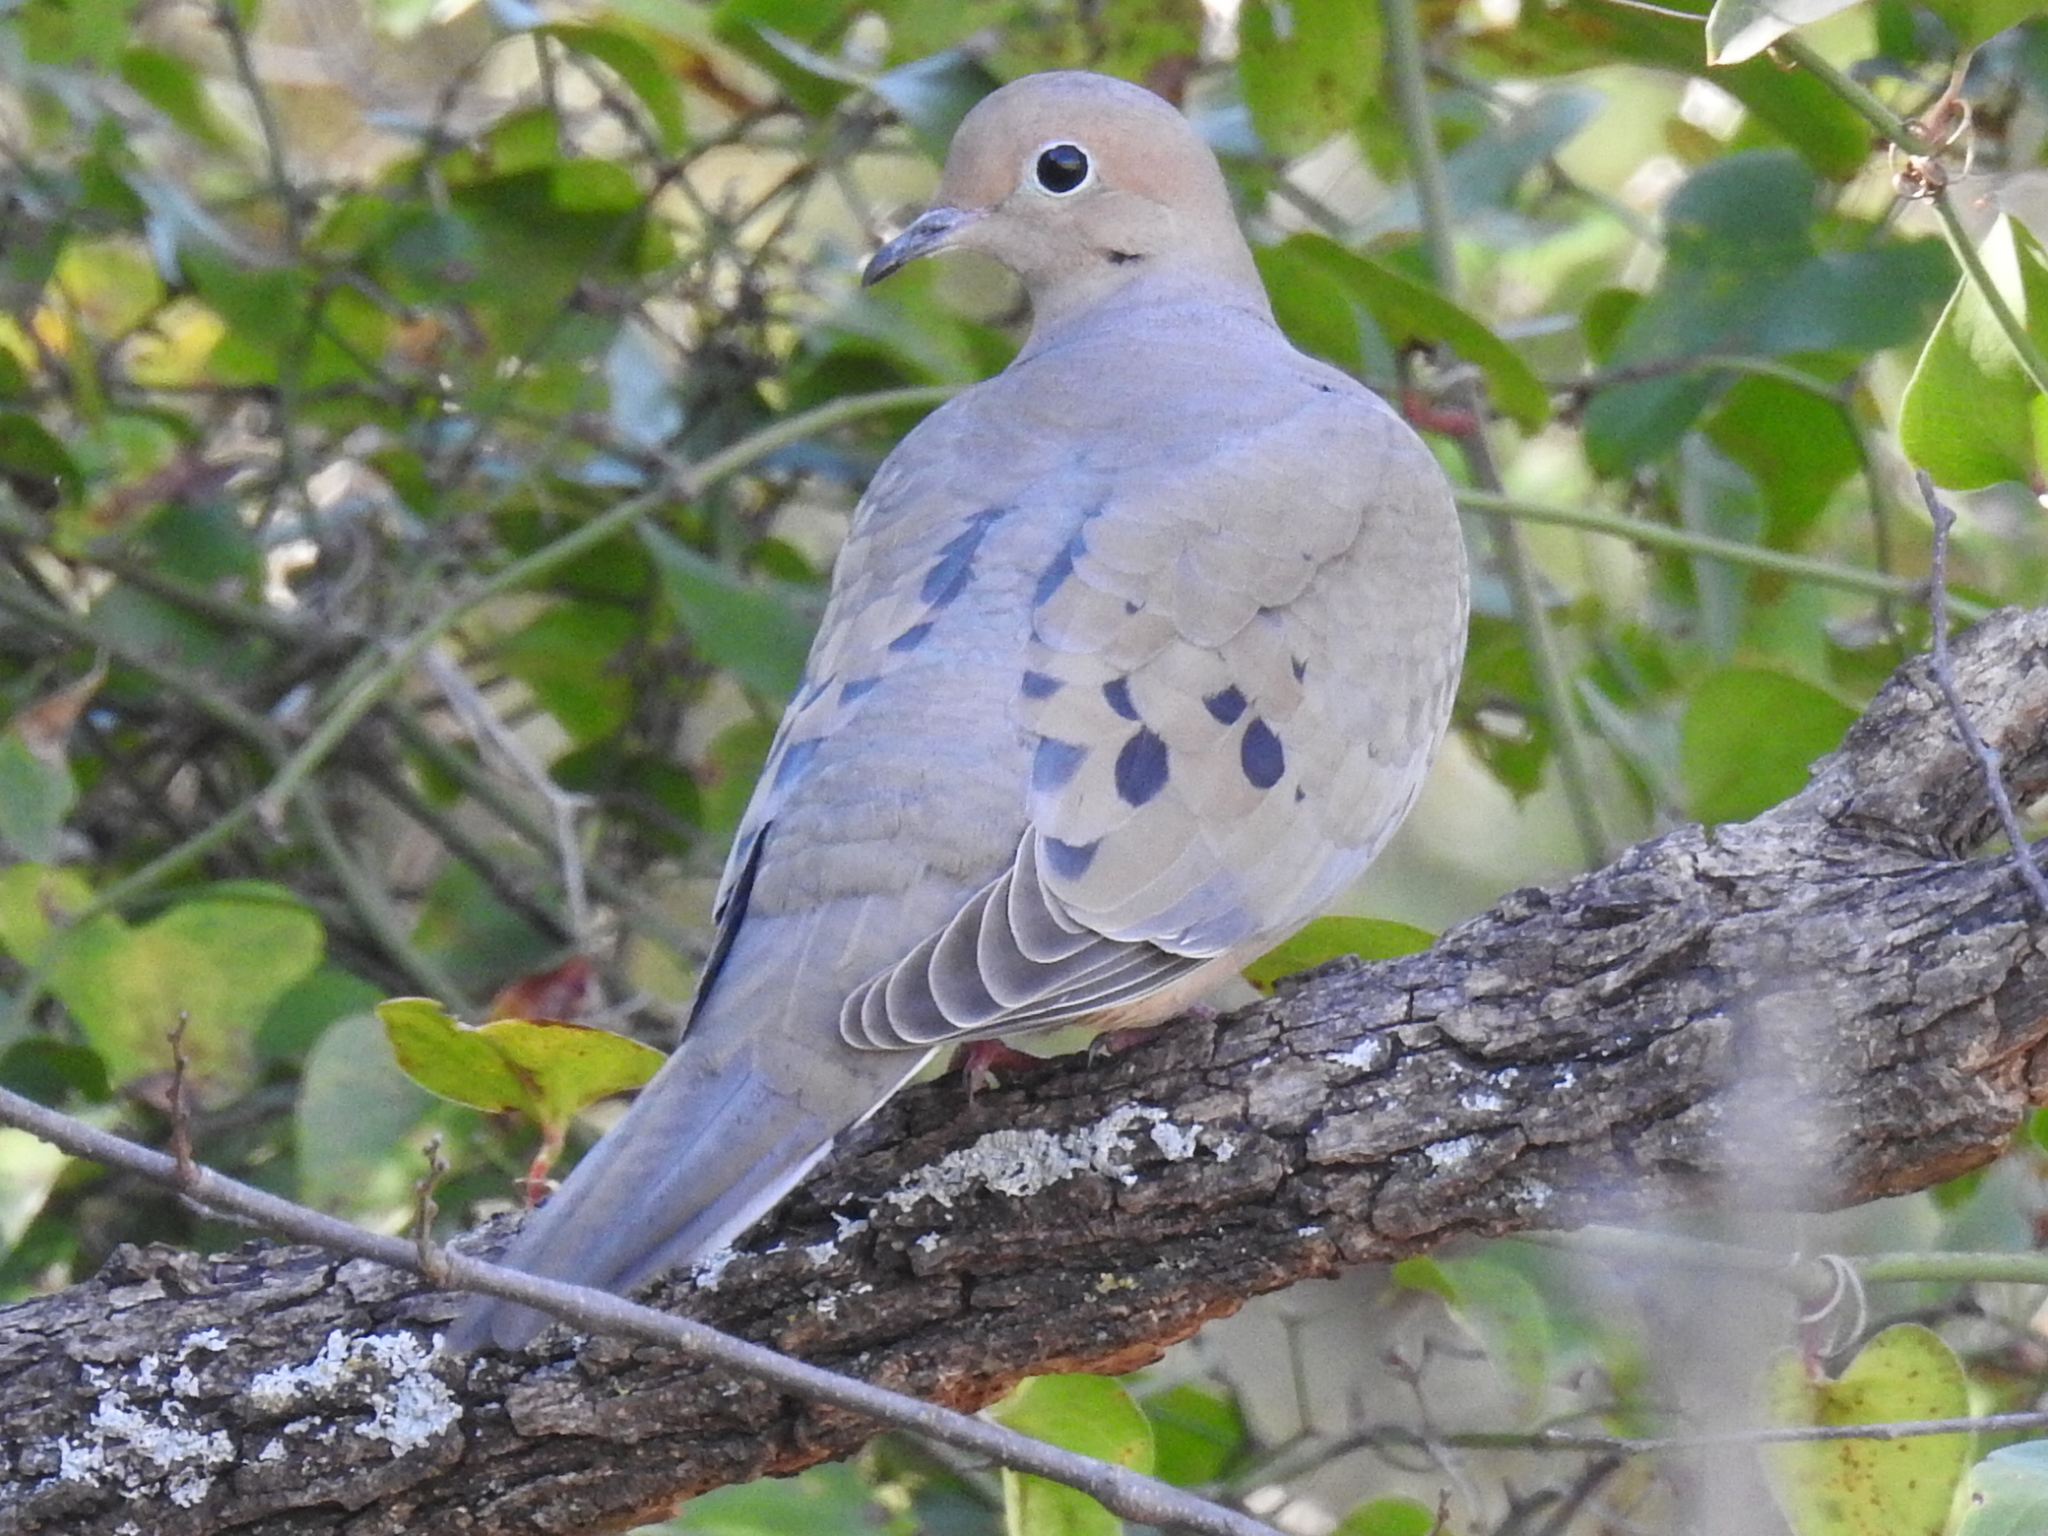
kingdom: Animalia
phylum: Chordata
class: Aves
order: Columbiformes
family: Columbidae
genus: Zenaida
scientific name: Zenaida macroura
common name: Mourning dove
